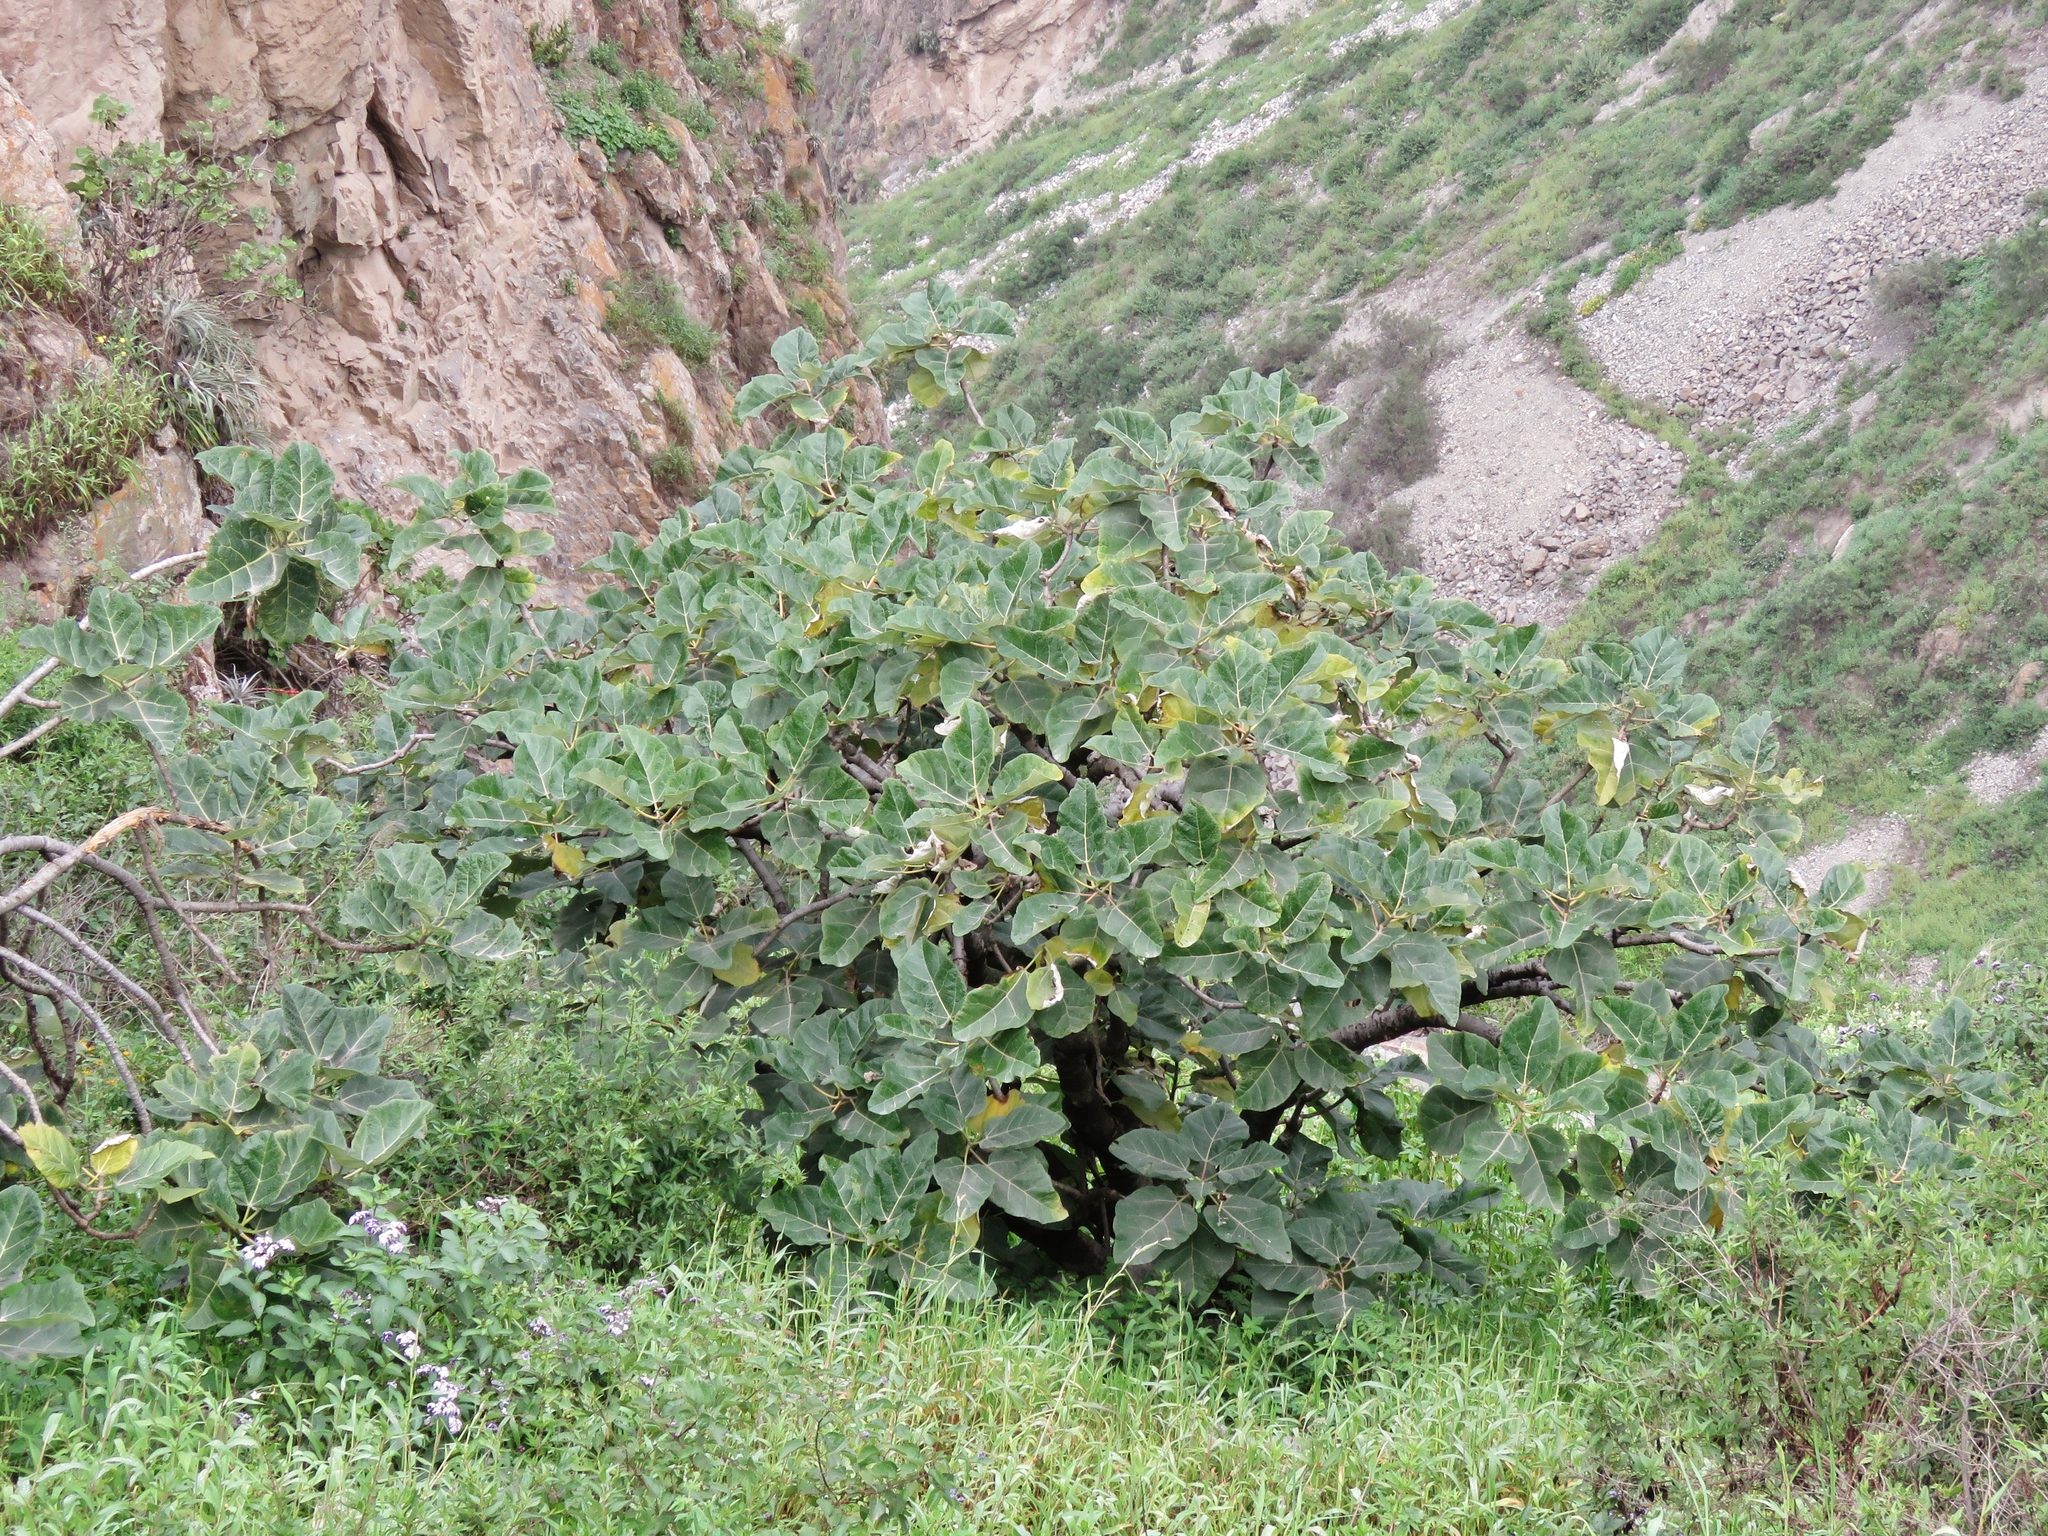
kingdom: Plantae
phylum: Tracheophyta
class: Magnoliopsida
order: Brassicales
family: Caricaceae
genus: Vasconcellea
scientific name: Vasconcellea candicans
